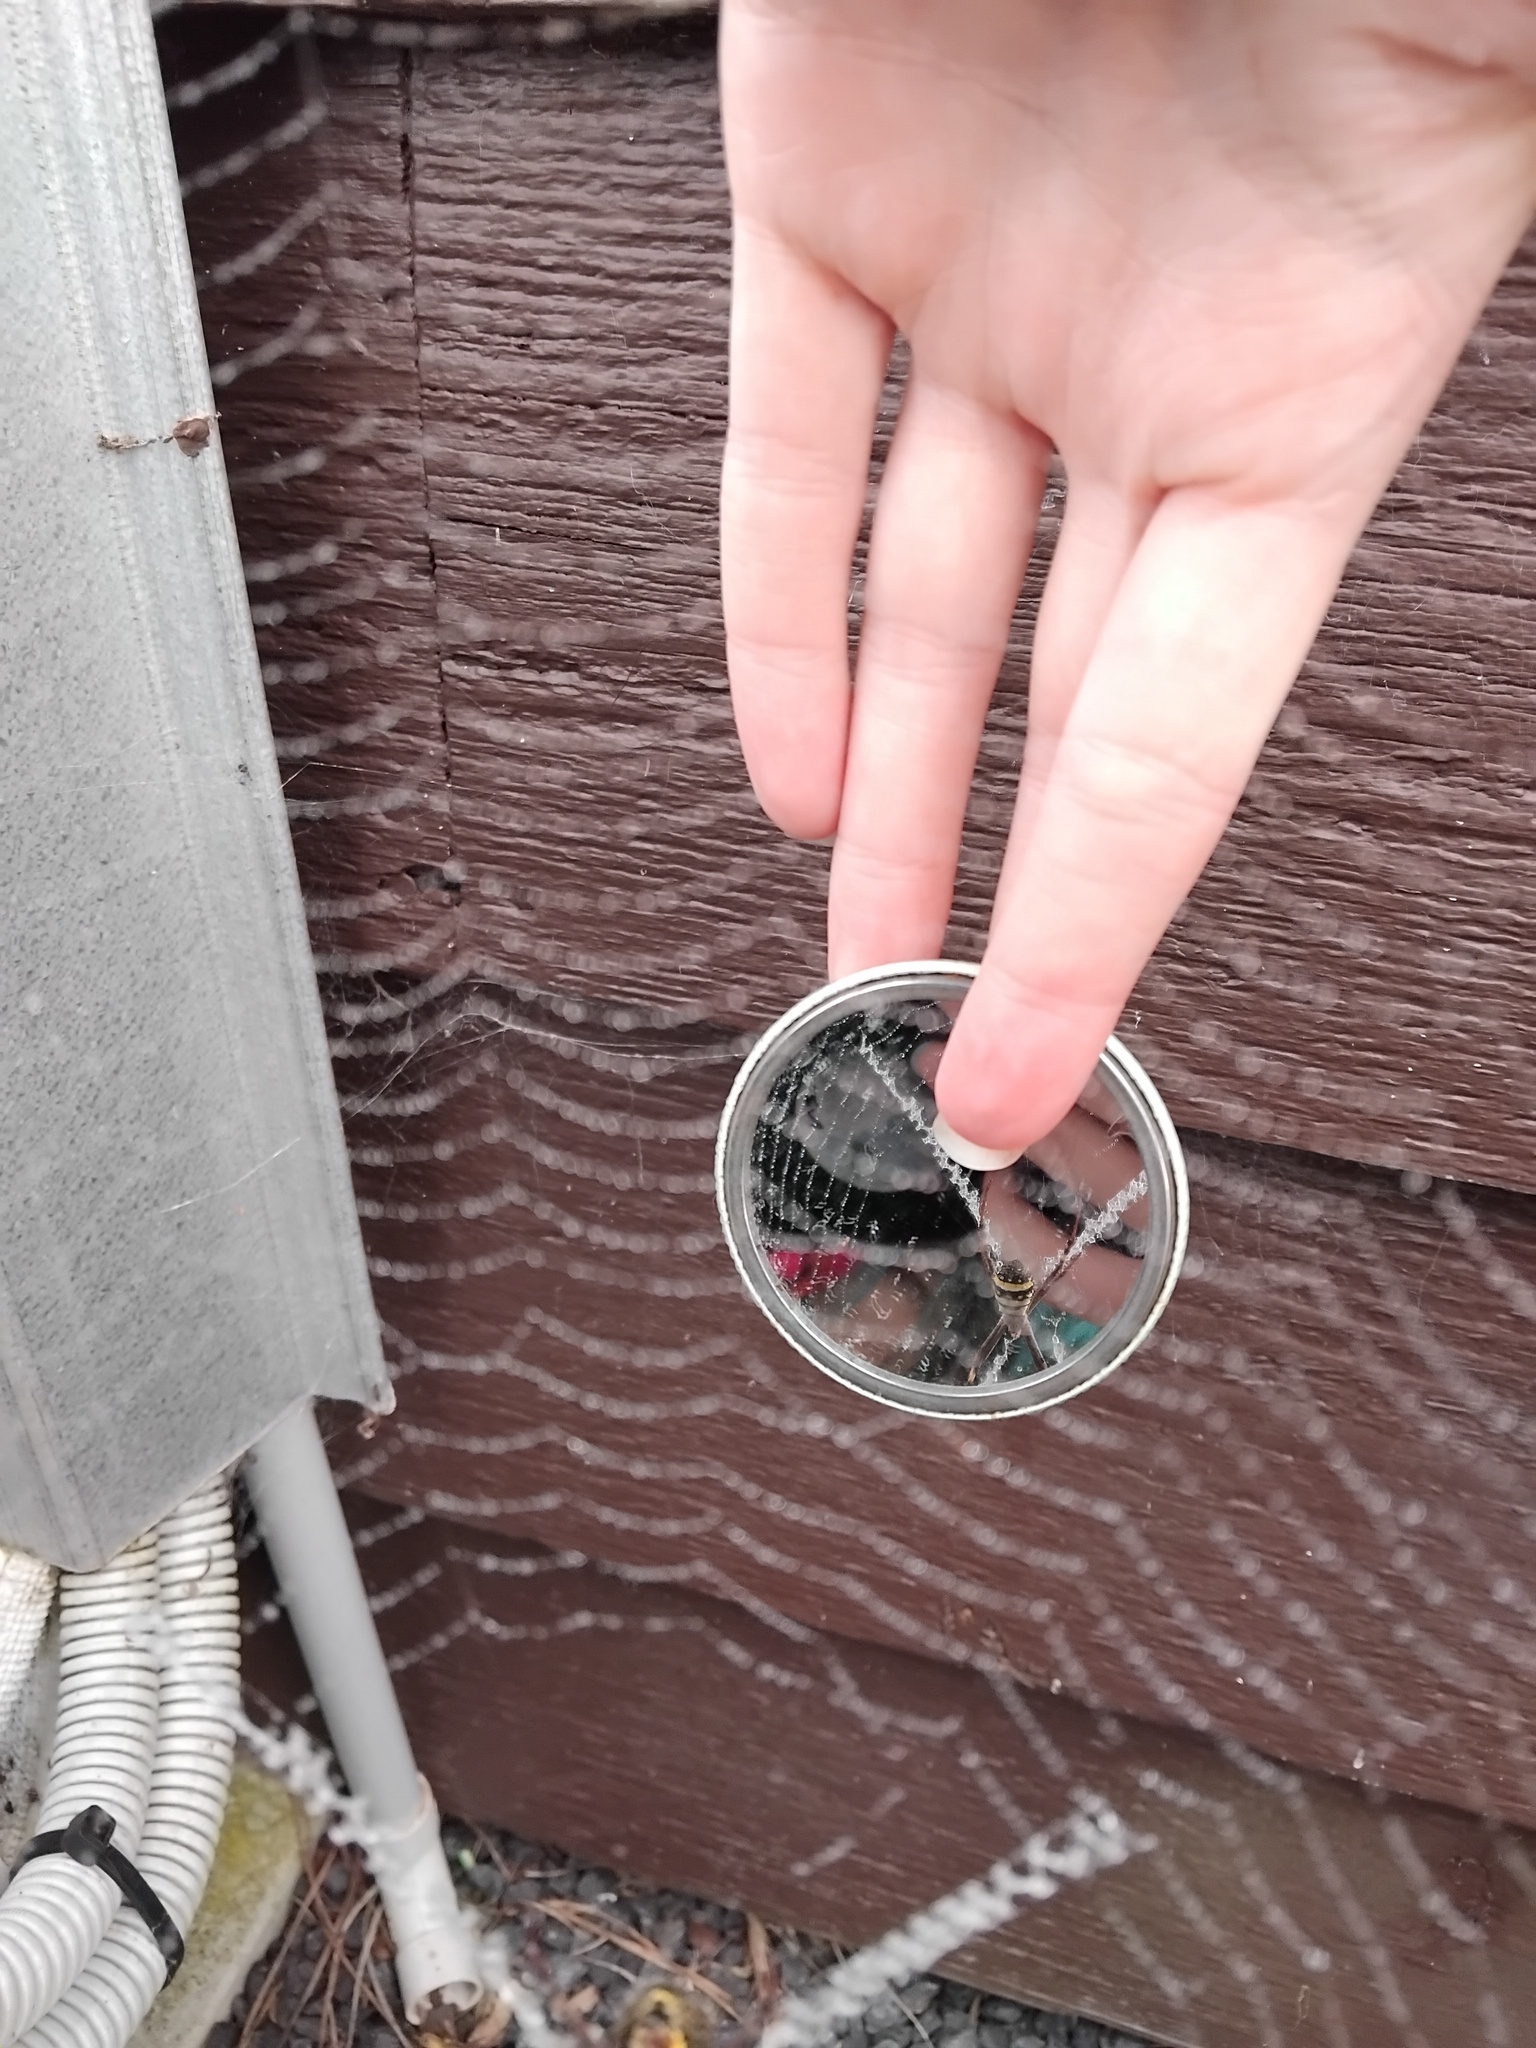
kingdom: Animalia
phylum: Arthropoda
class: Arachnida
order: Araneae
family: Araneidae
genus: Argiope
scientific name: Argiope keyserlingi
